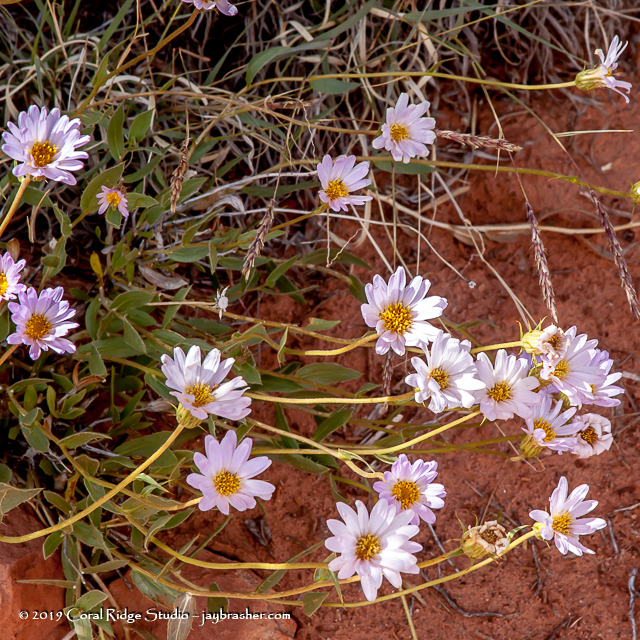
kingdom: Plantae
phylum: Tracheophyta
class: Magnoliopsida
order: Asterales
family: Asteraceae
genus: Xylorhiza
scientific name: Xylorhiza tortifolia
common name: Hurt-leaf woody-aster
